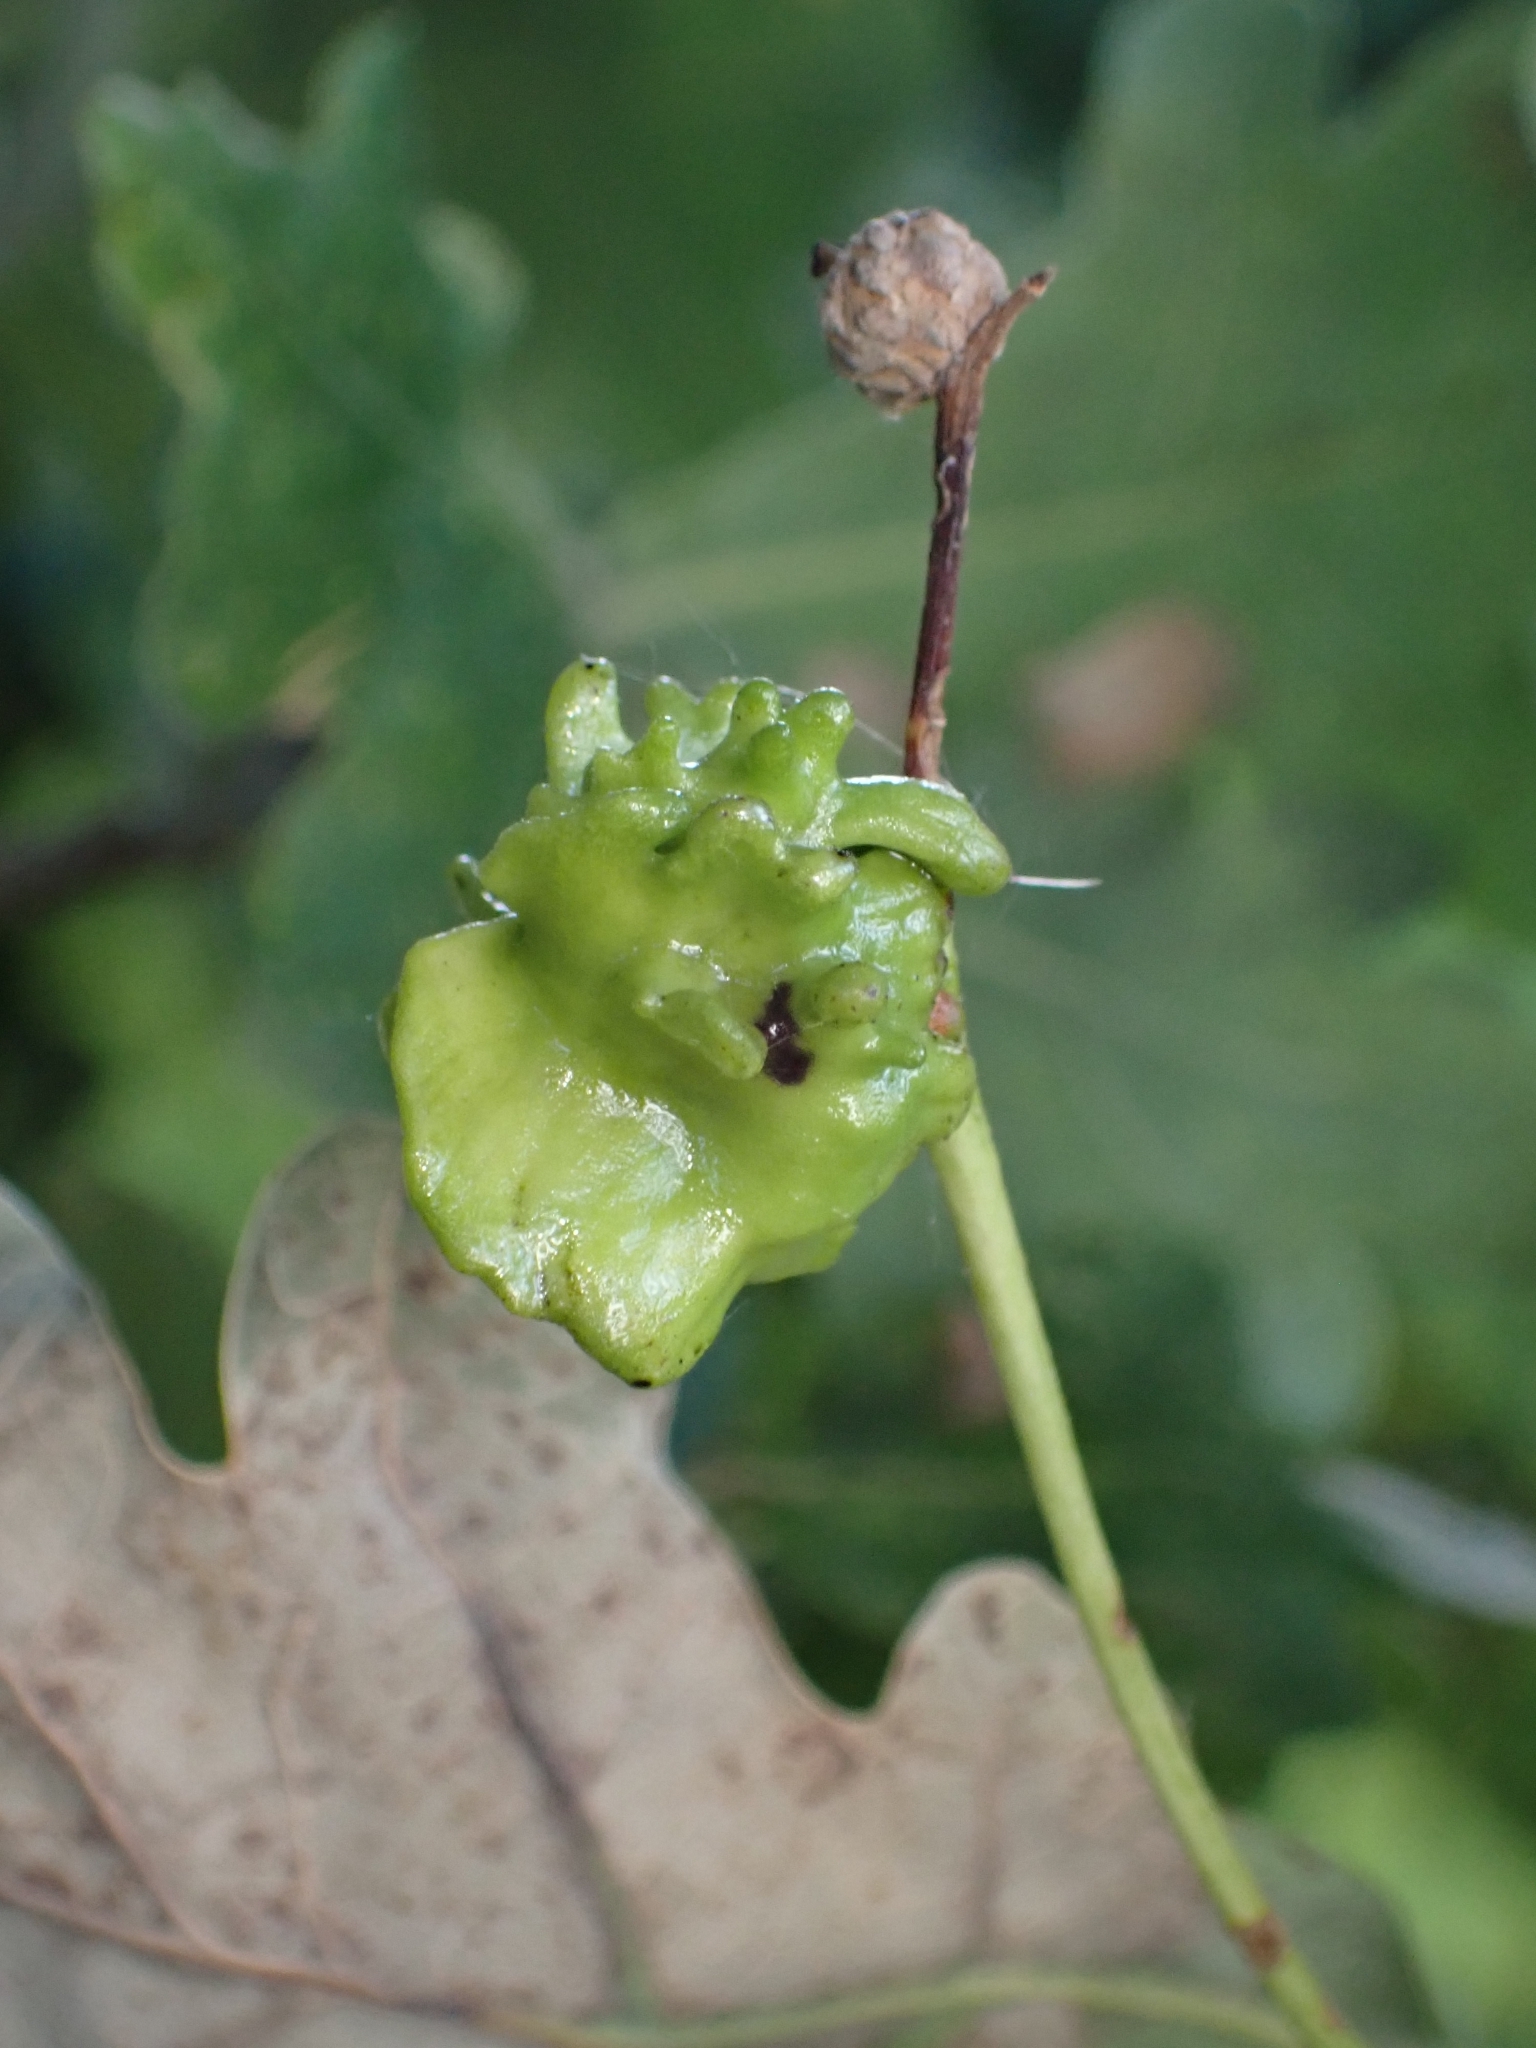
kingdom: Animalia
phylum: Arthropoda
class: Insecta
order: Hymenoptera
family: Cynipidae
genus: Andricus
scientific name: Andricus quercuscalicis
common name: Knopper gall
